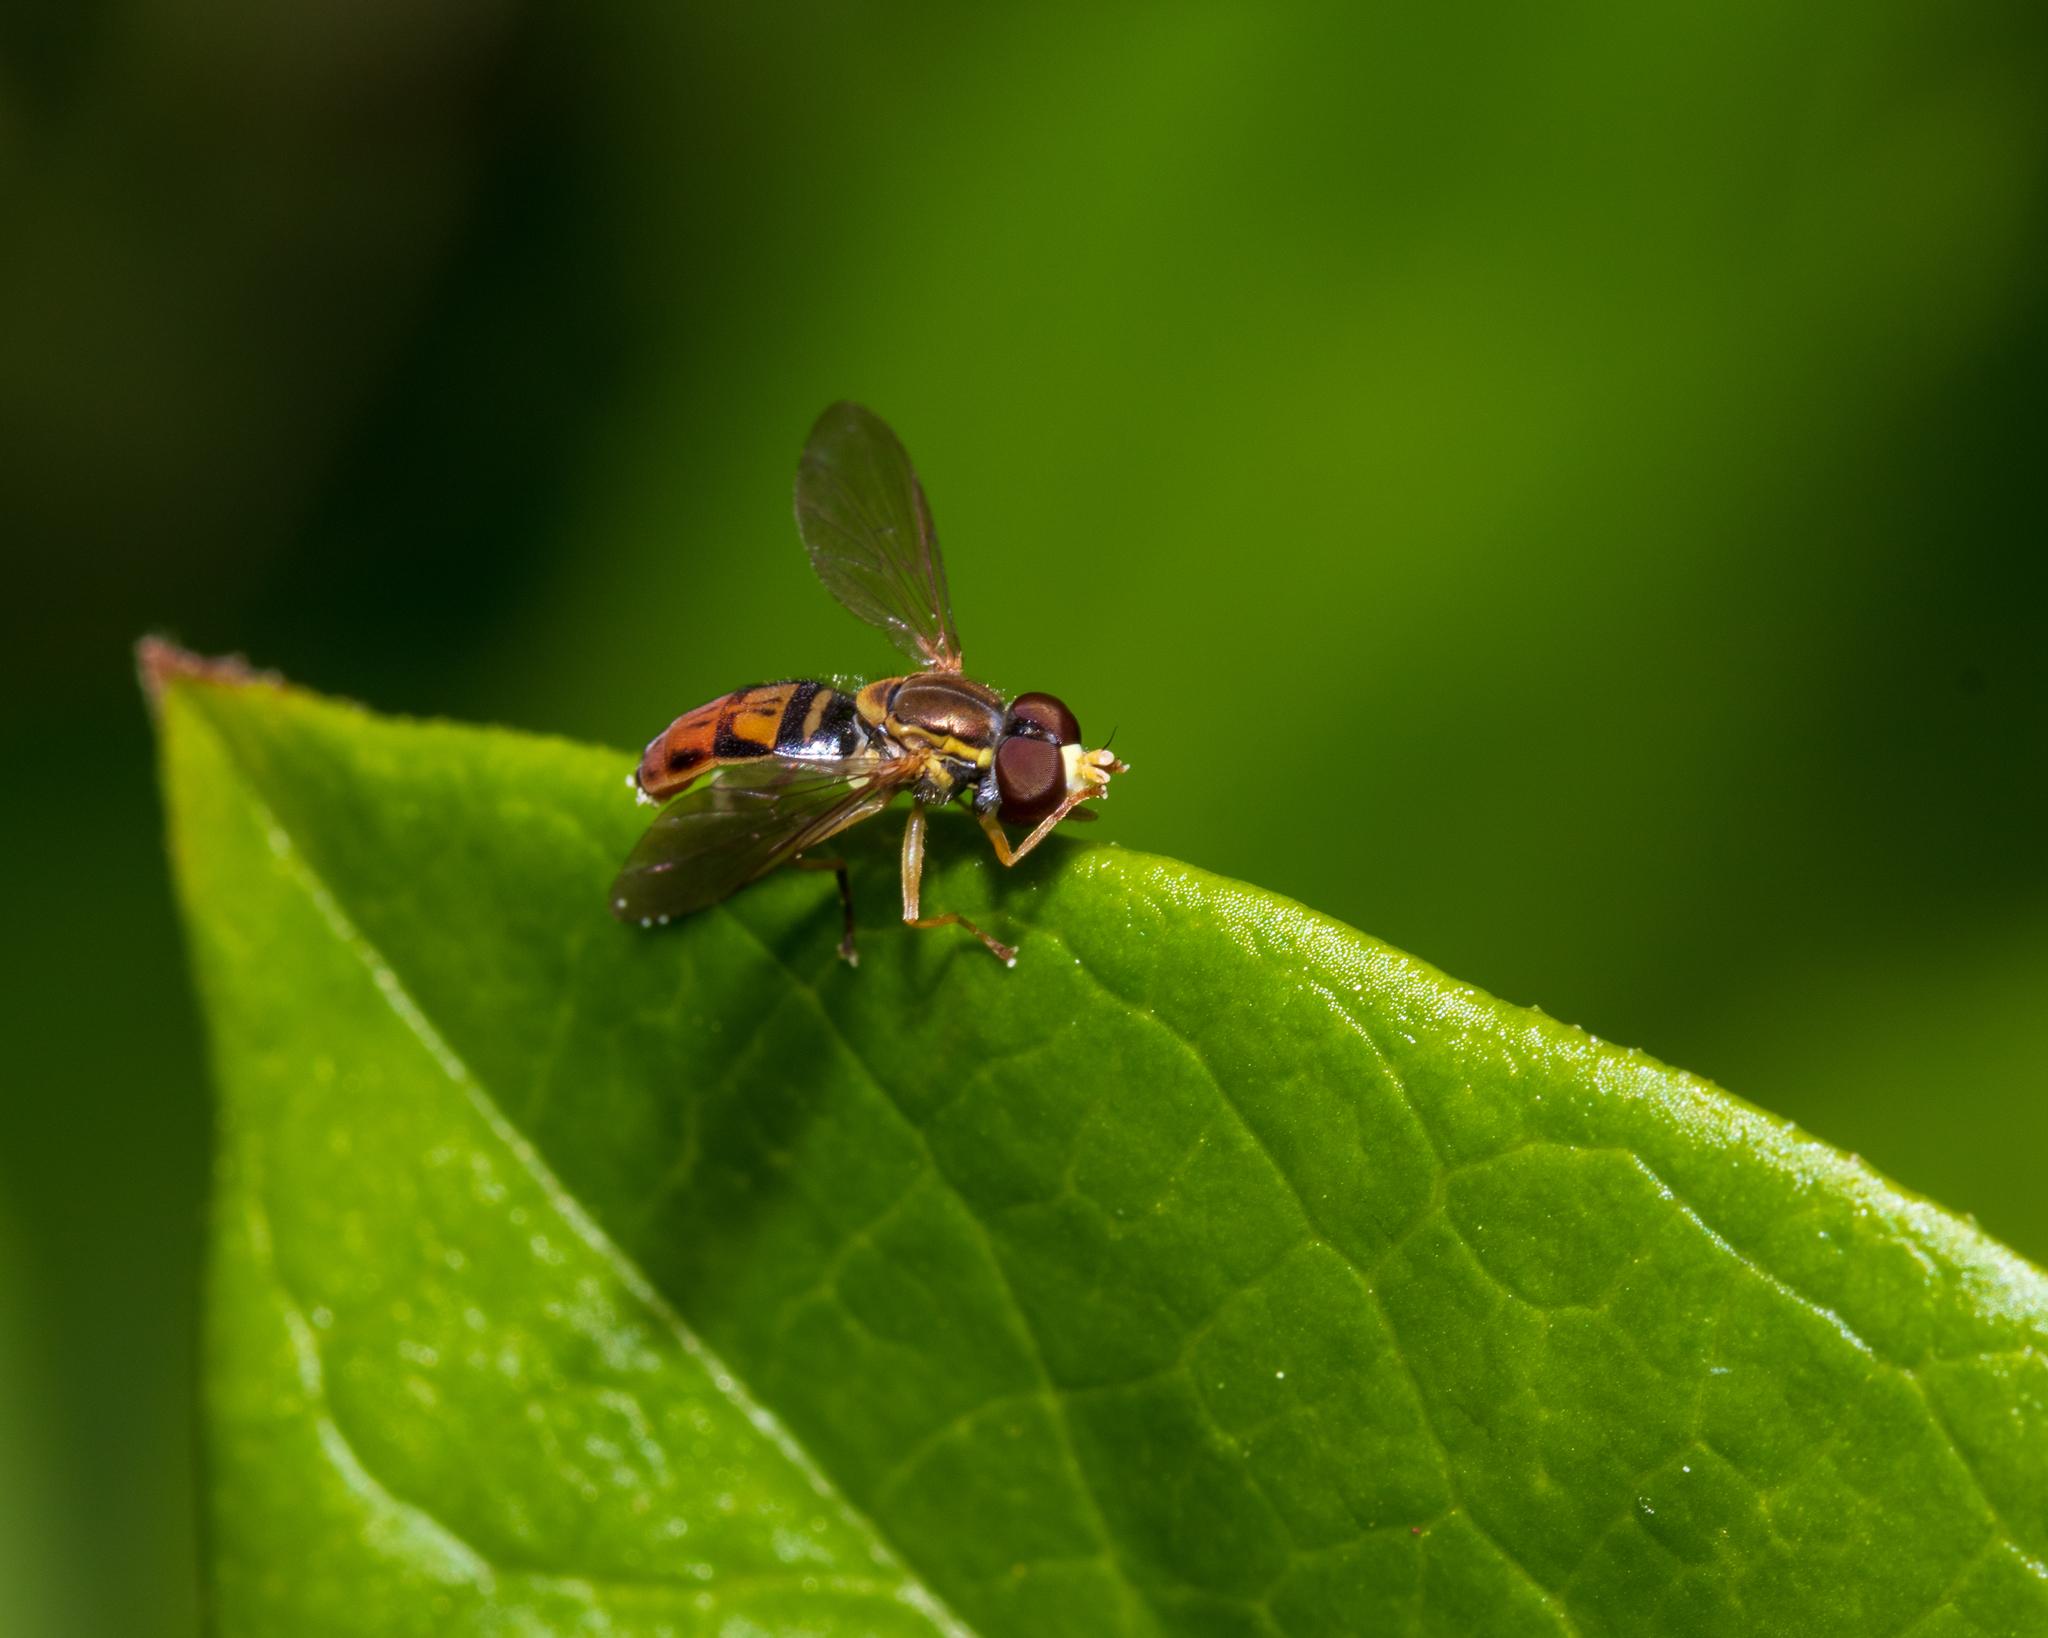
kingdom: Animalia
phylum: Arthropoda
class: Insecta
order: Diptera
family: Syrphidae
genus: Toxomerus
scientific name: Toxomerus marginatus
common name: Syrphid fly
